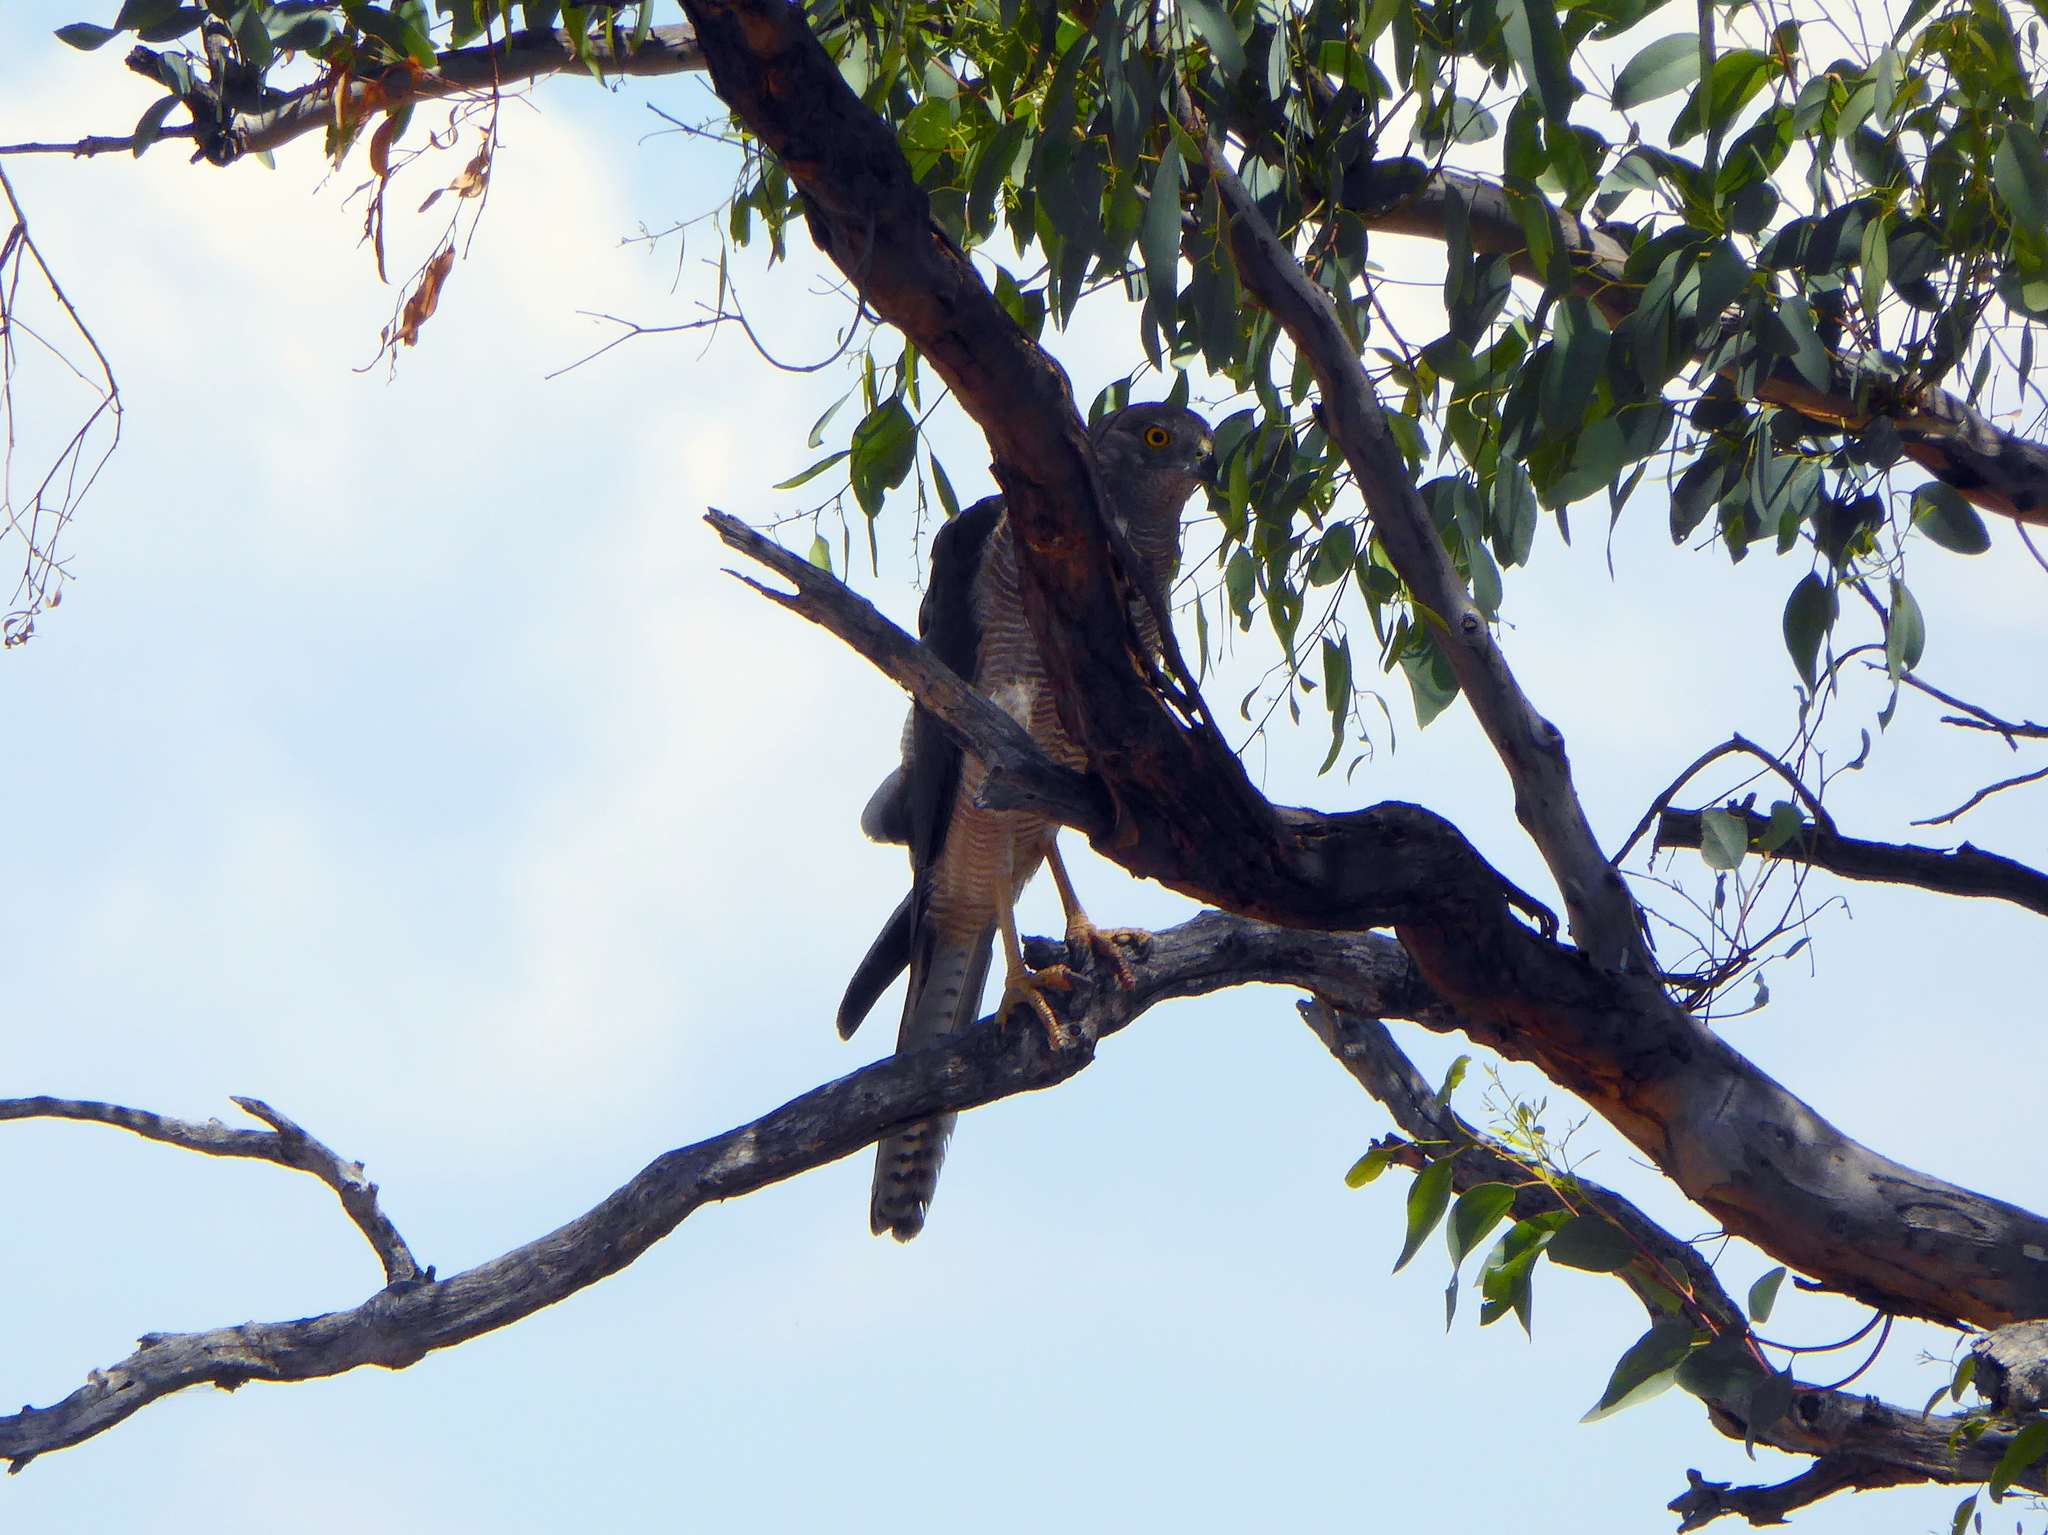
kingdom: Animalia
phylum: Chordata
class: Aves
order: Accipitriformes
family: Accipitridae
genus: Accipiter
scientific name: Accipiter cirrocephalus
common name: Collared sparrowhawk
